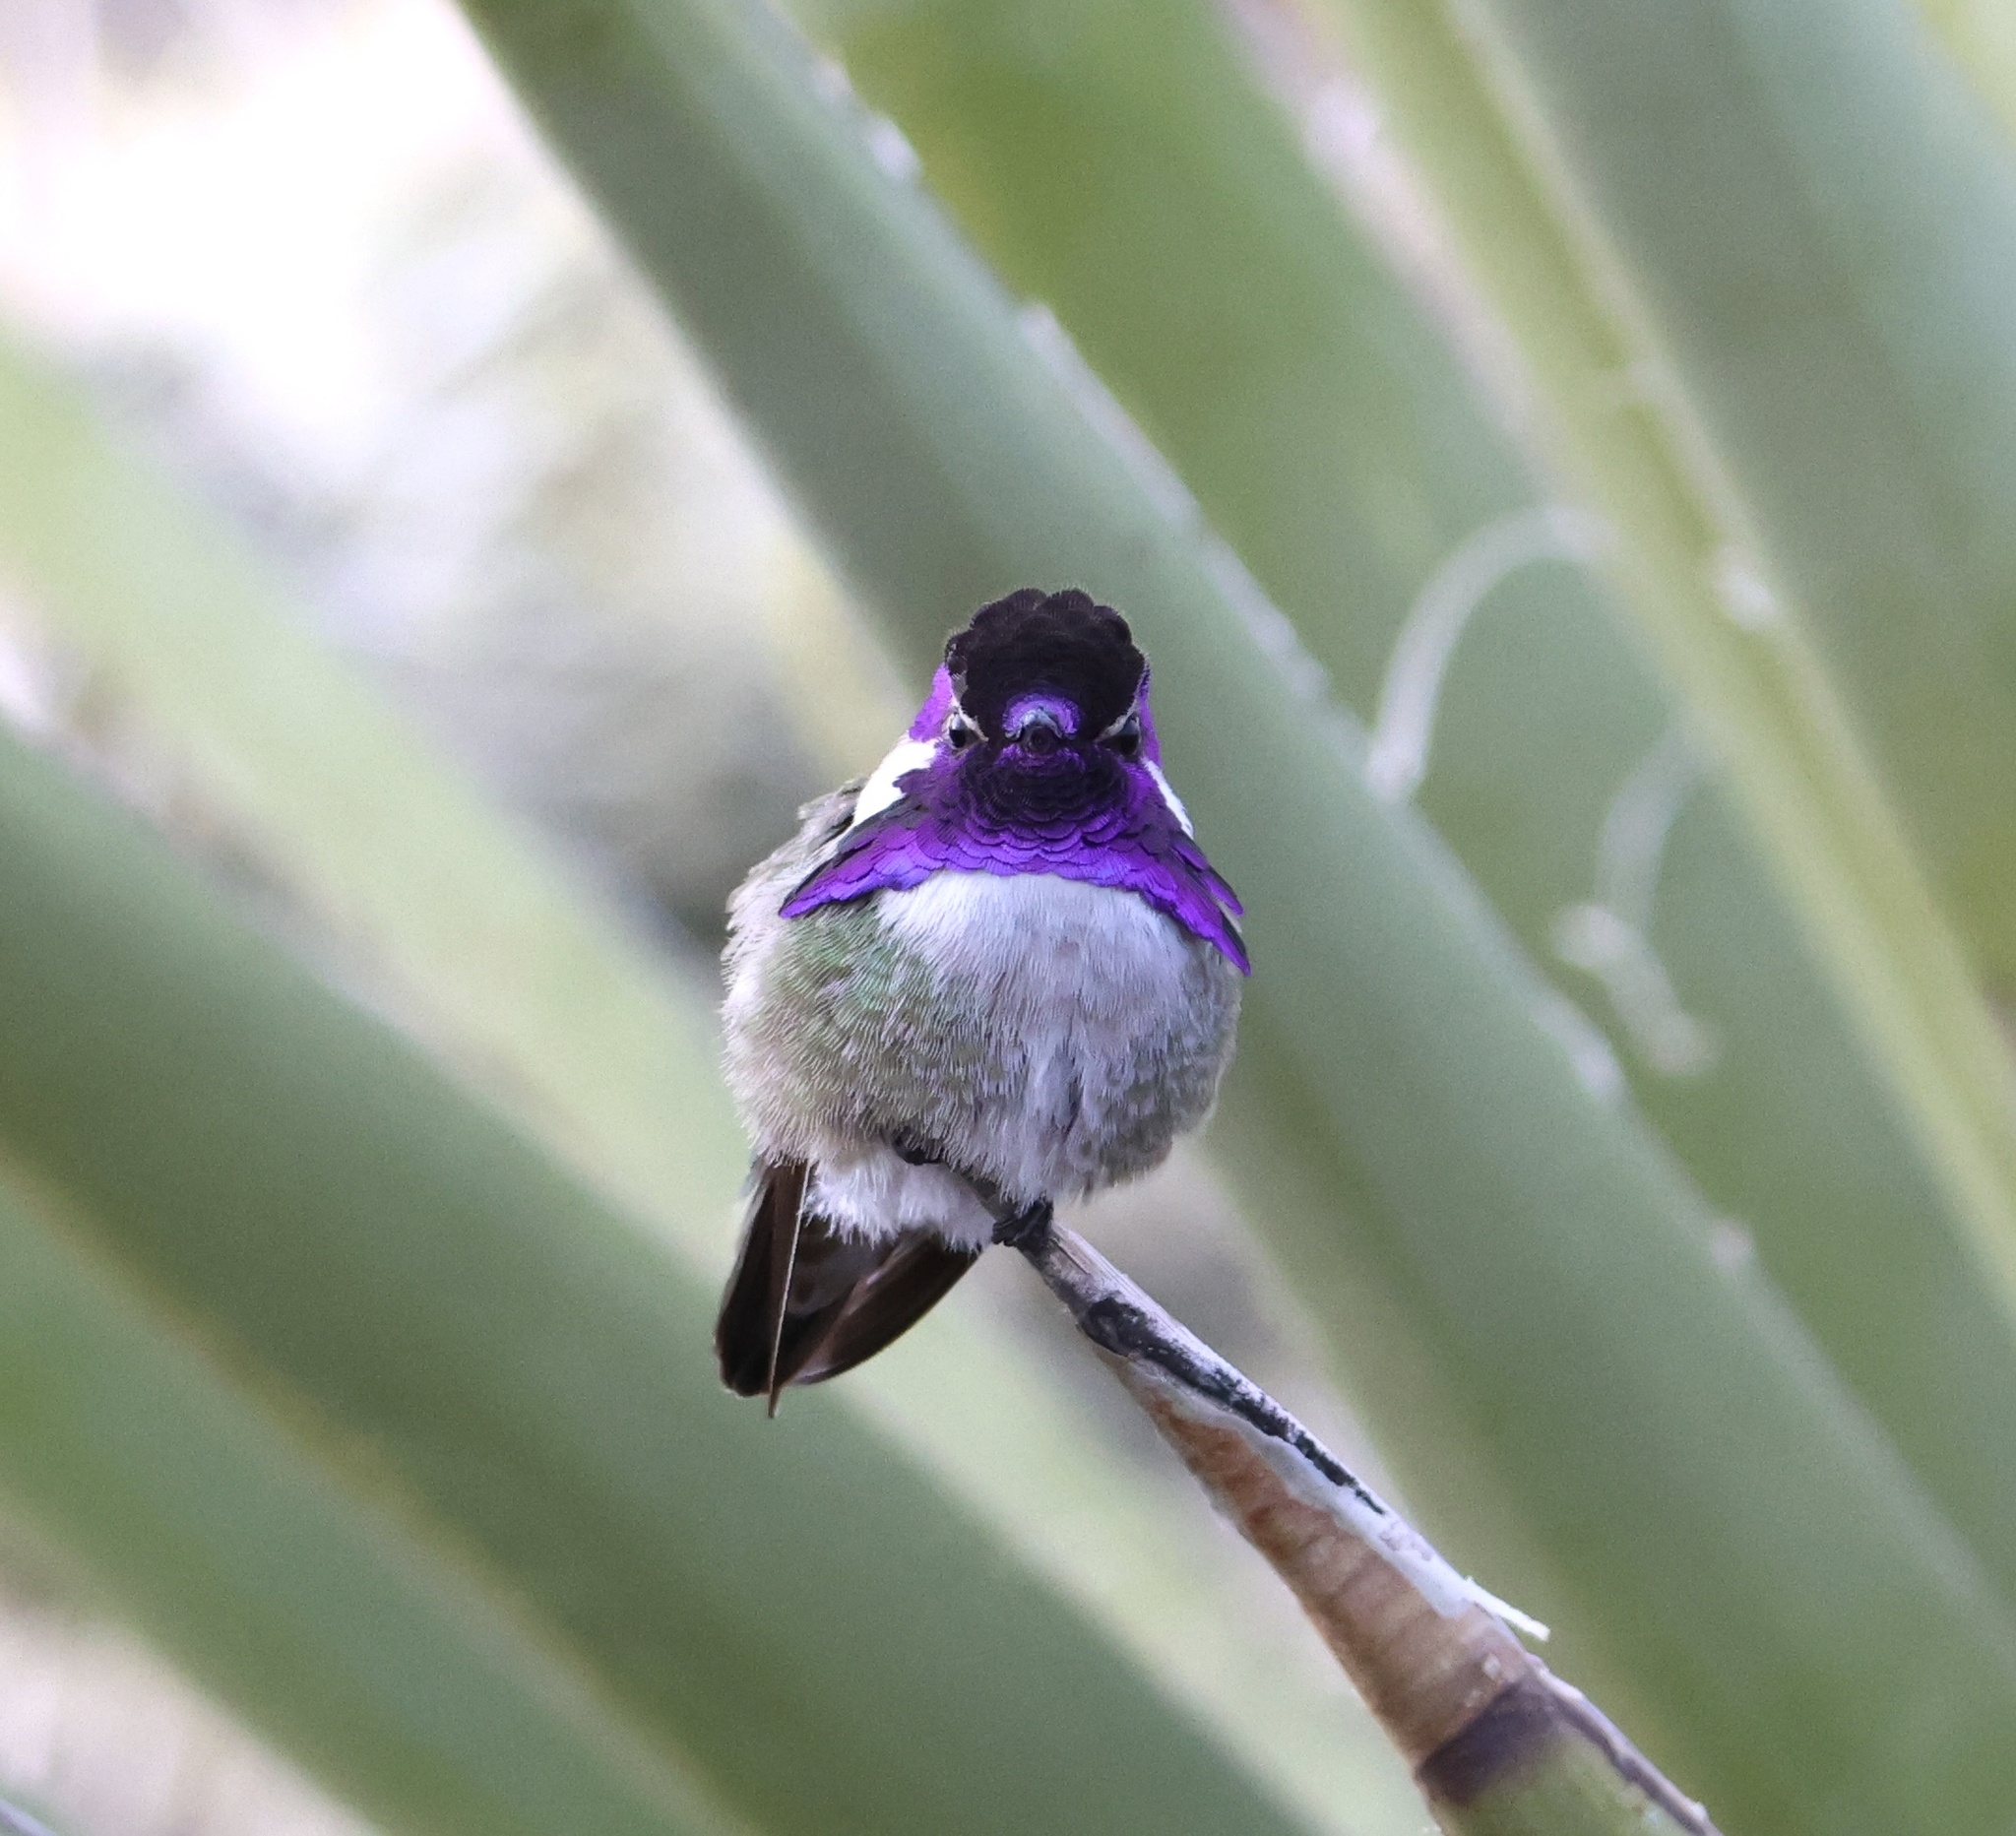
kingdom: Animalia
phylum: Chordata
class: Aves
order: Apodiformes
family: Trochilidae
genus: Calypte
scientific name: Calypte costae
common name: Costa's hummingbird
